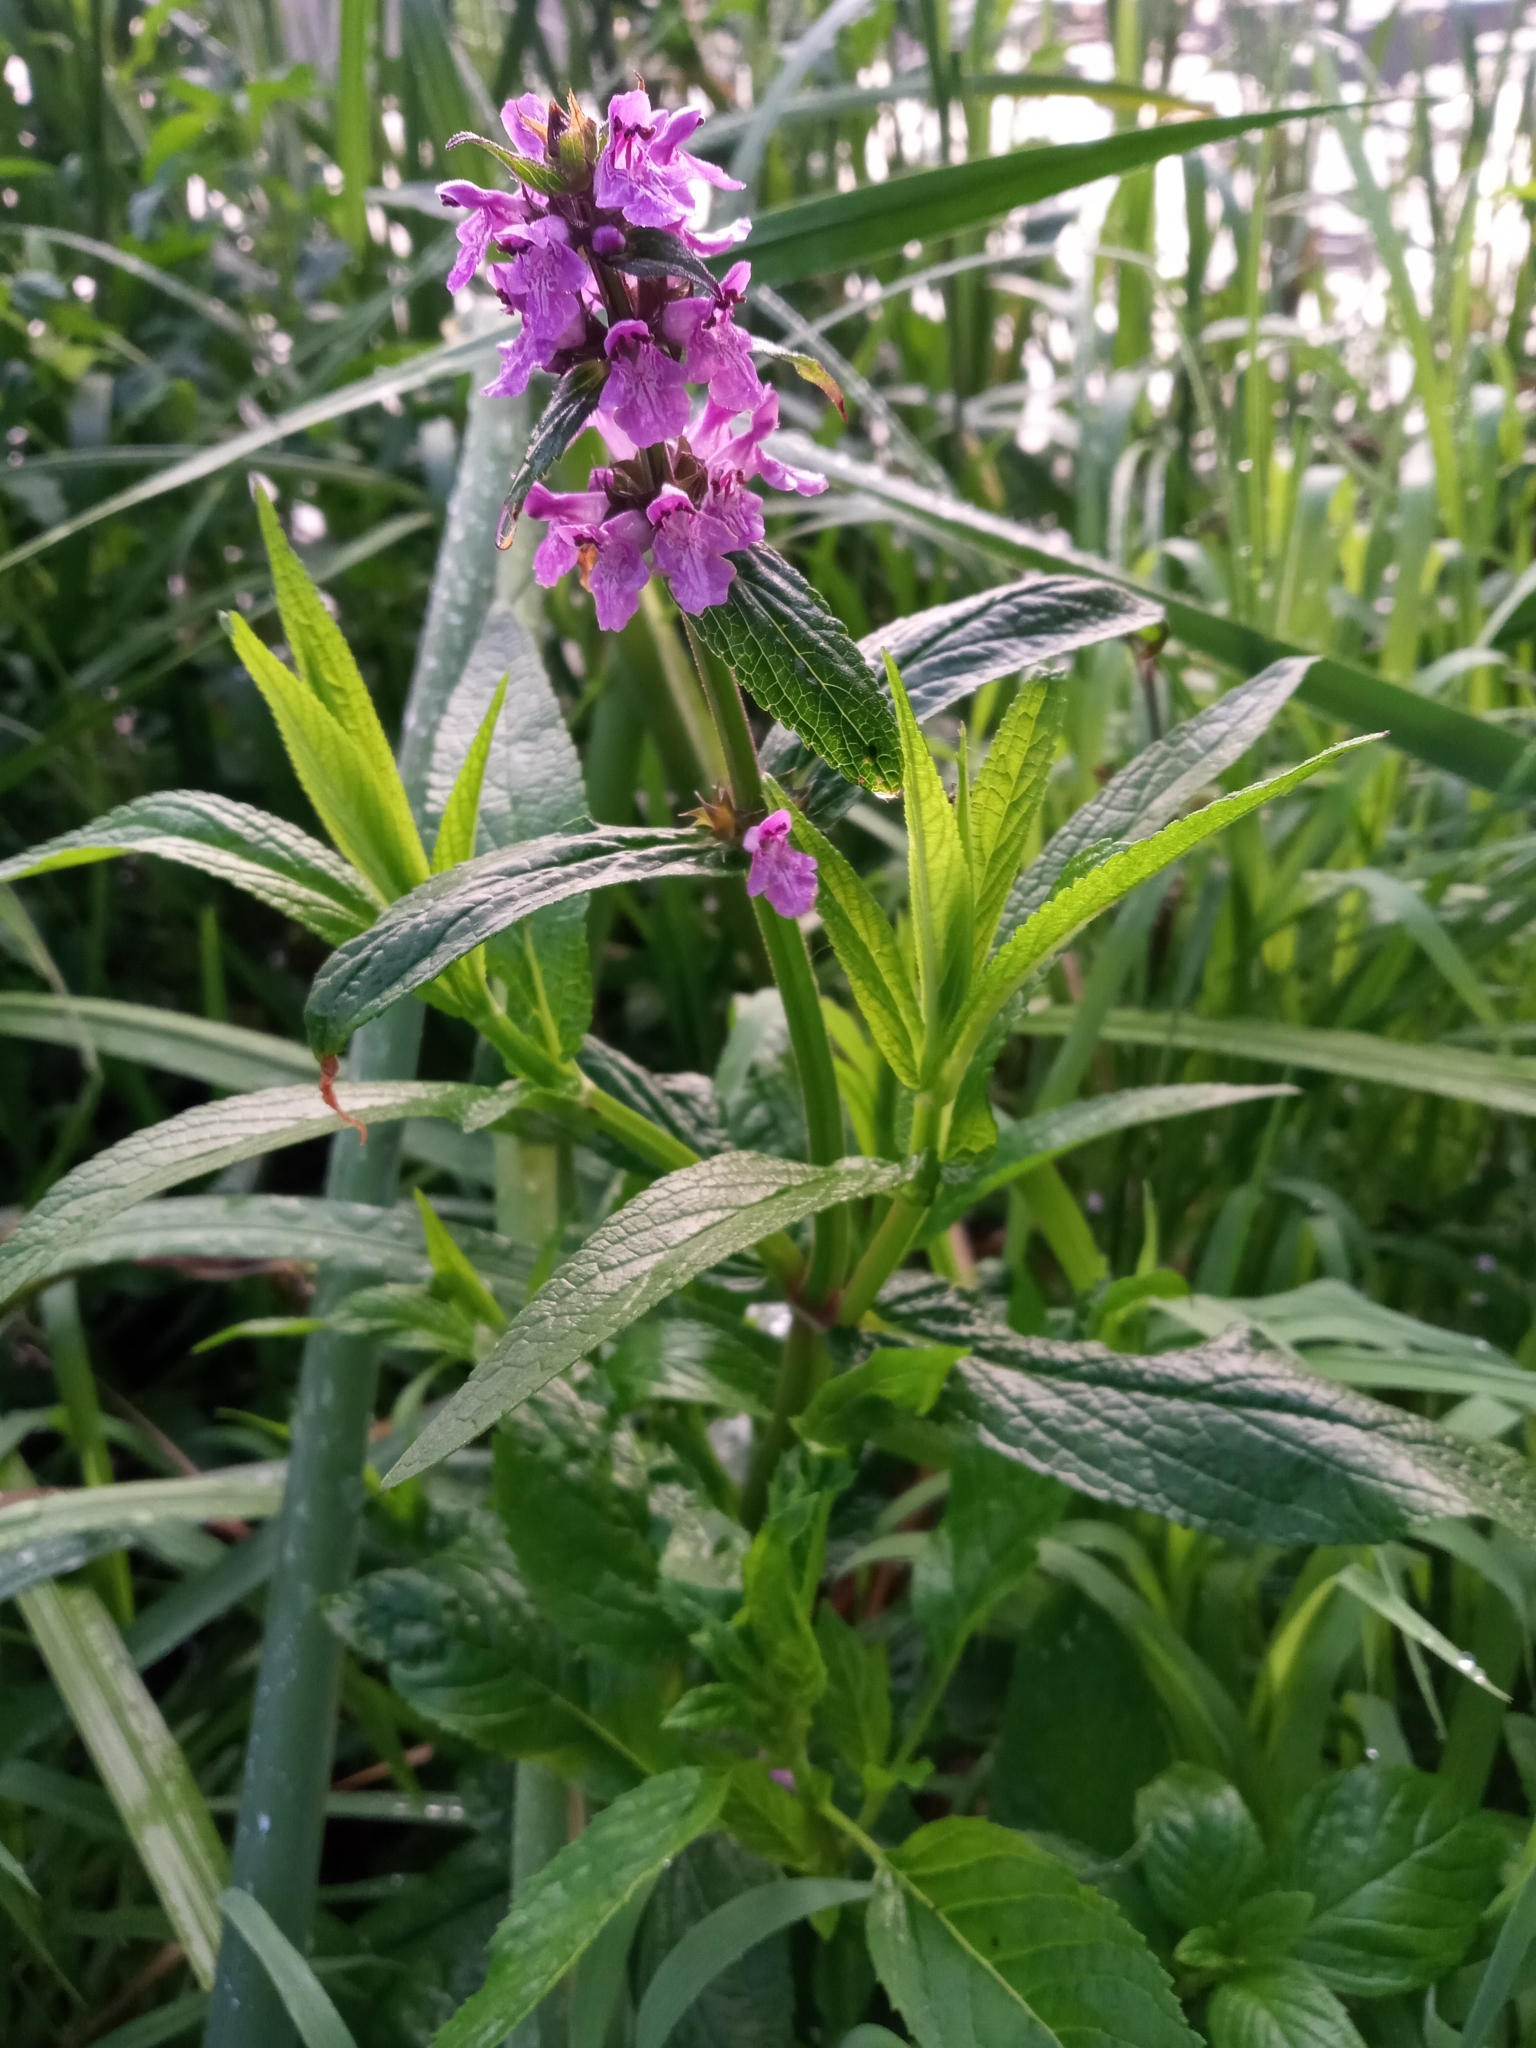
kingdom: Plantae
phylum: Tracheophyta
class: Magnoliopsida
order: Lamiales
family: Lamiaceae
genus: Stachys
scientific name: Stachys palustris
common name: Marsh woundwort
